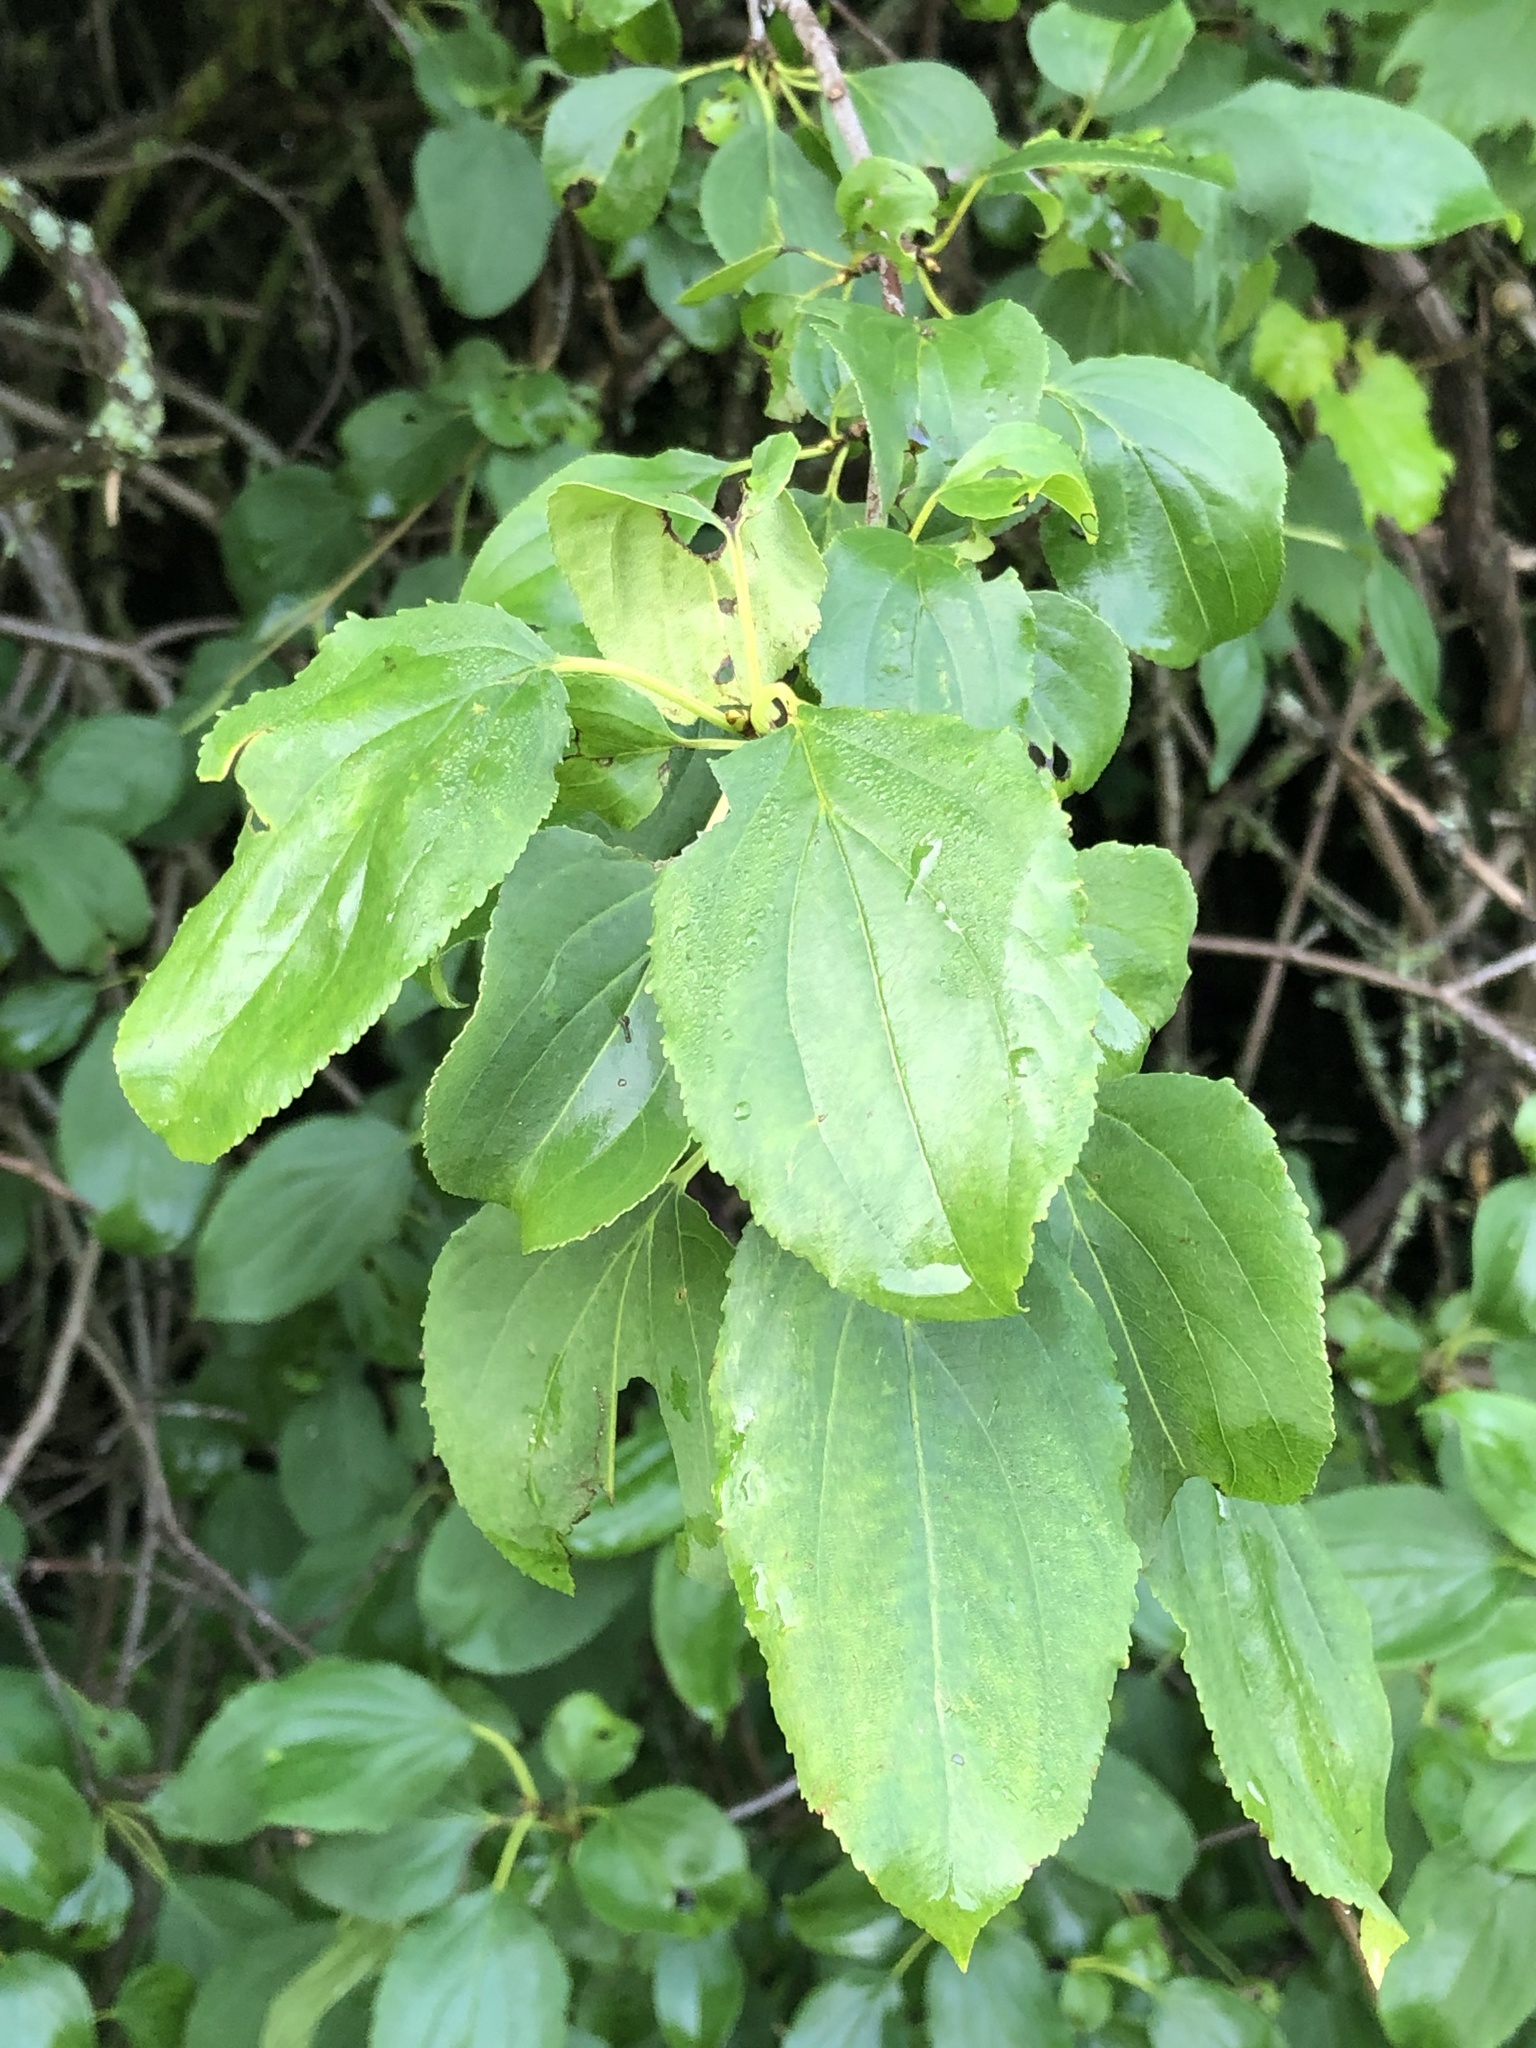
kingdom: Plantae
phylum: Tracheophyta
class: Magnoliopsida
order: Rosales
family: Rhamnaceae
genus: Rhamnus
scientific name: Rhamnus cathartica
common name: Common buckthorn
